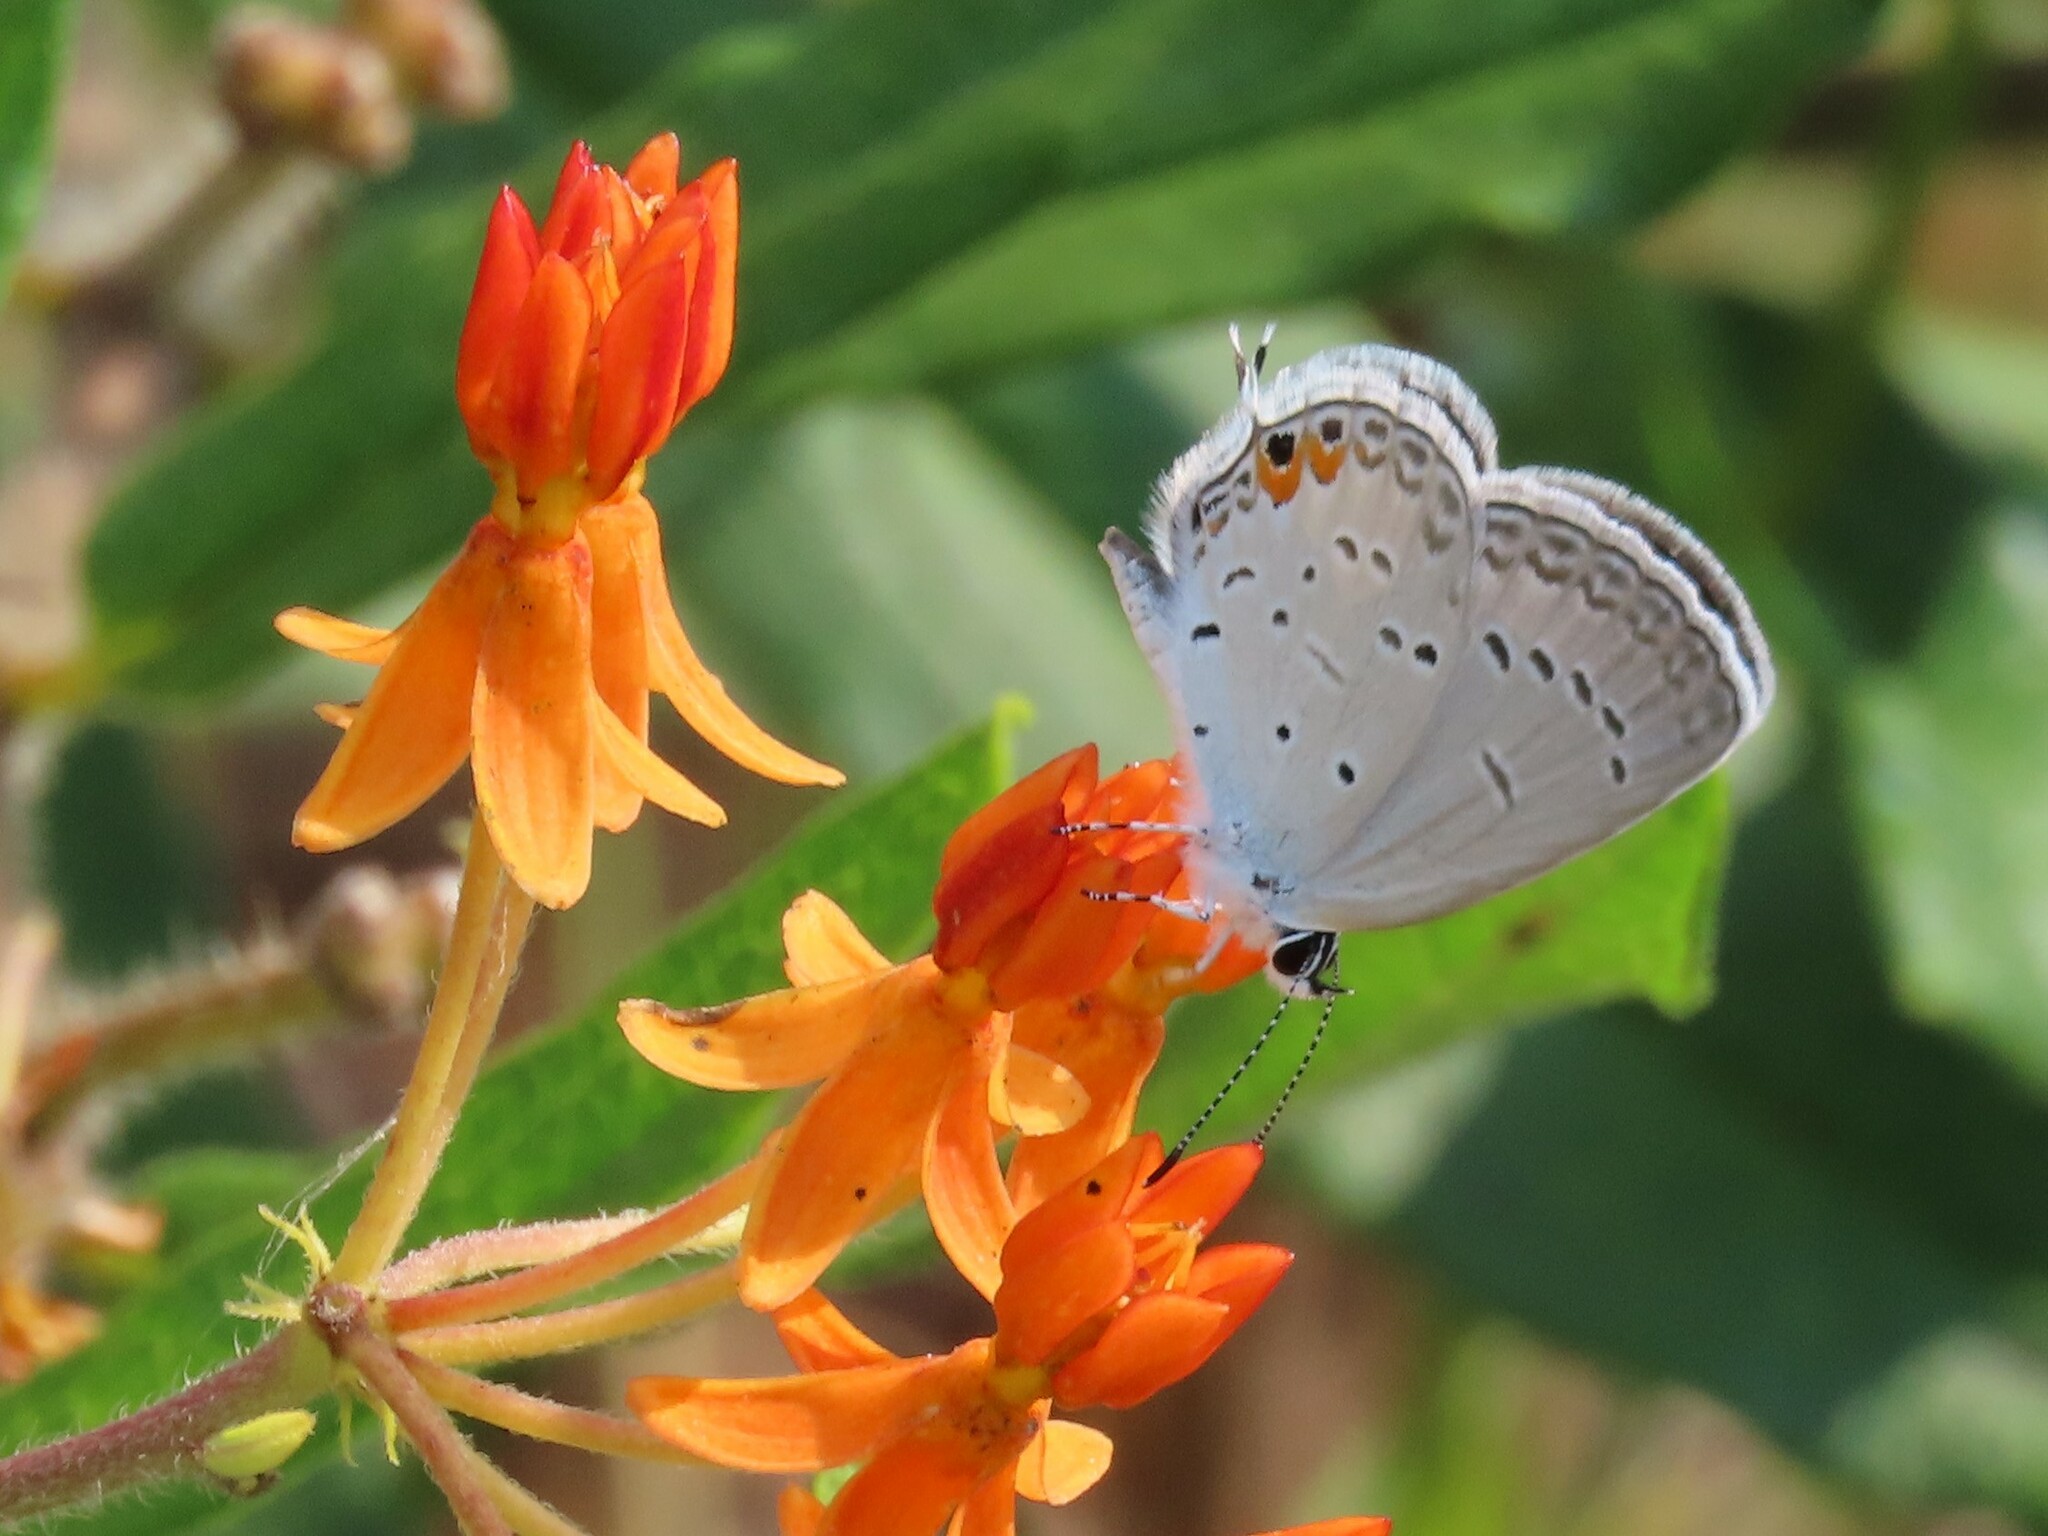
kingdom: Animalia
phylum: Arthropoda
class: Insecta
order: Lepidoptera
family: Lycaenidae
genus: Elkalyce
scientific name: Elkalyce comyntas
